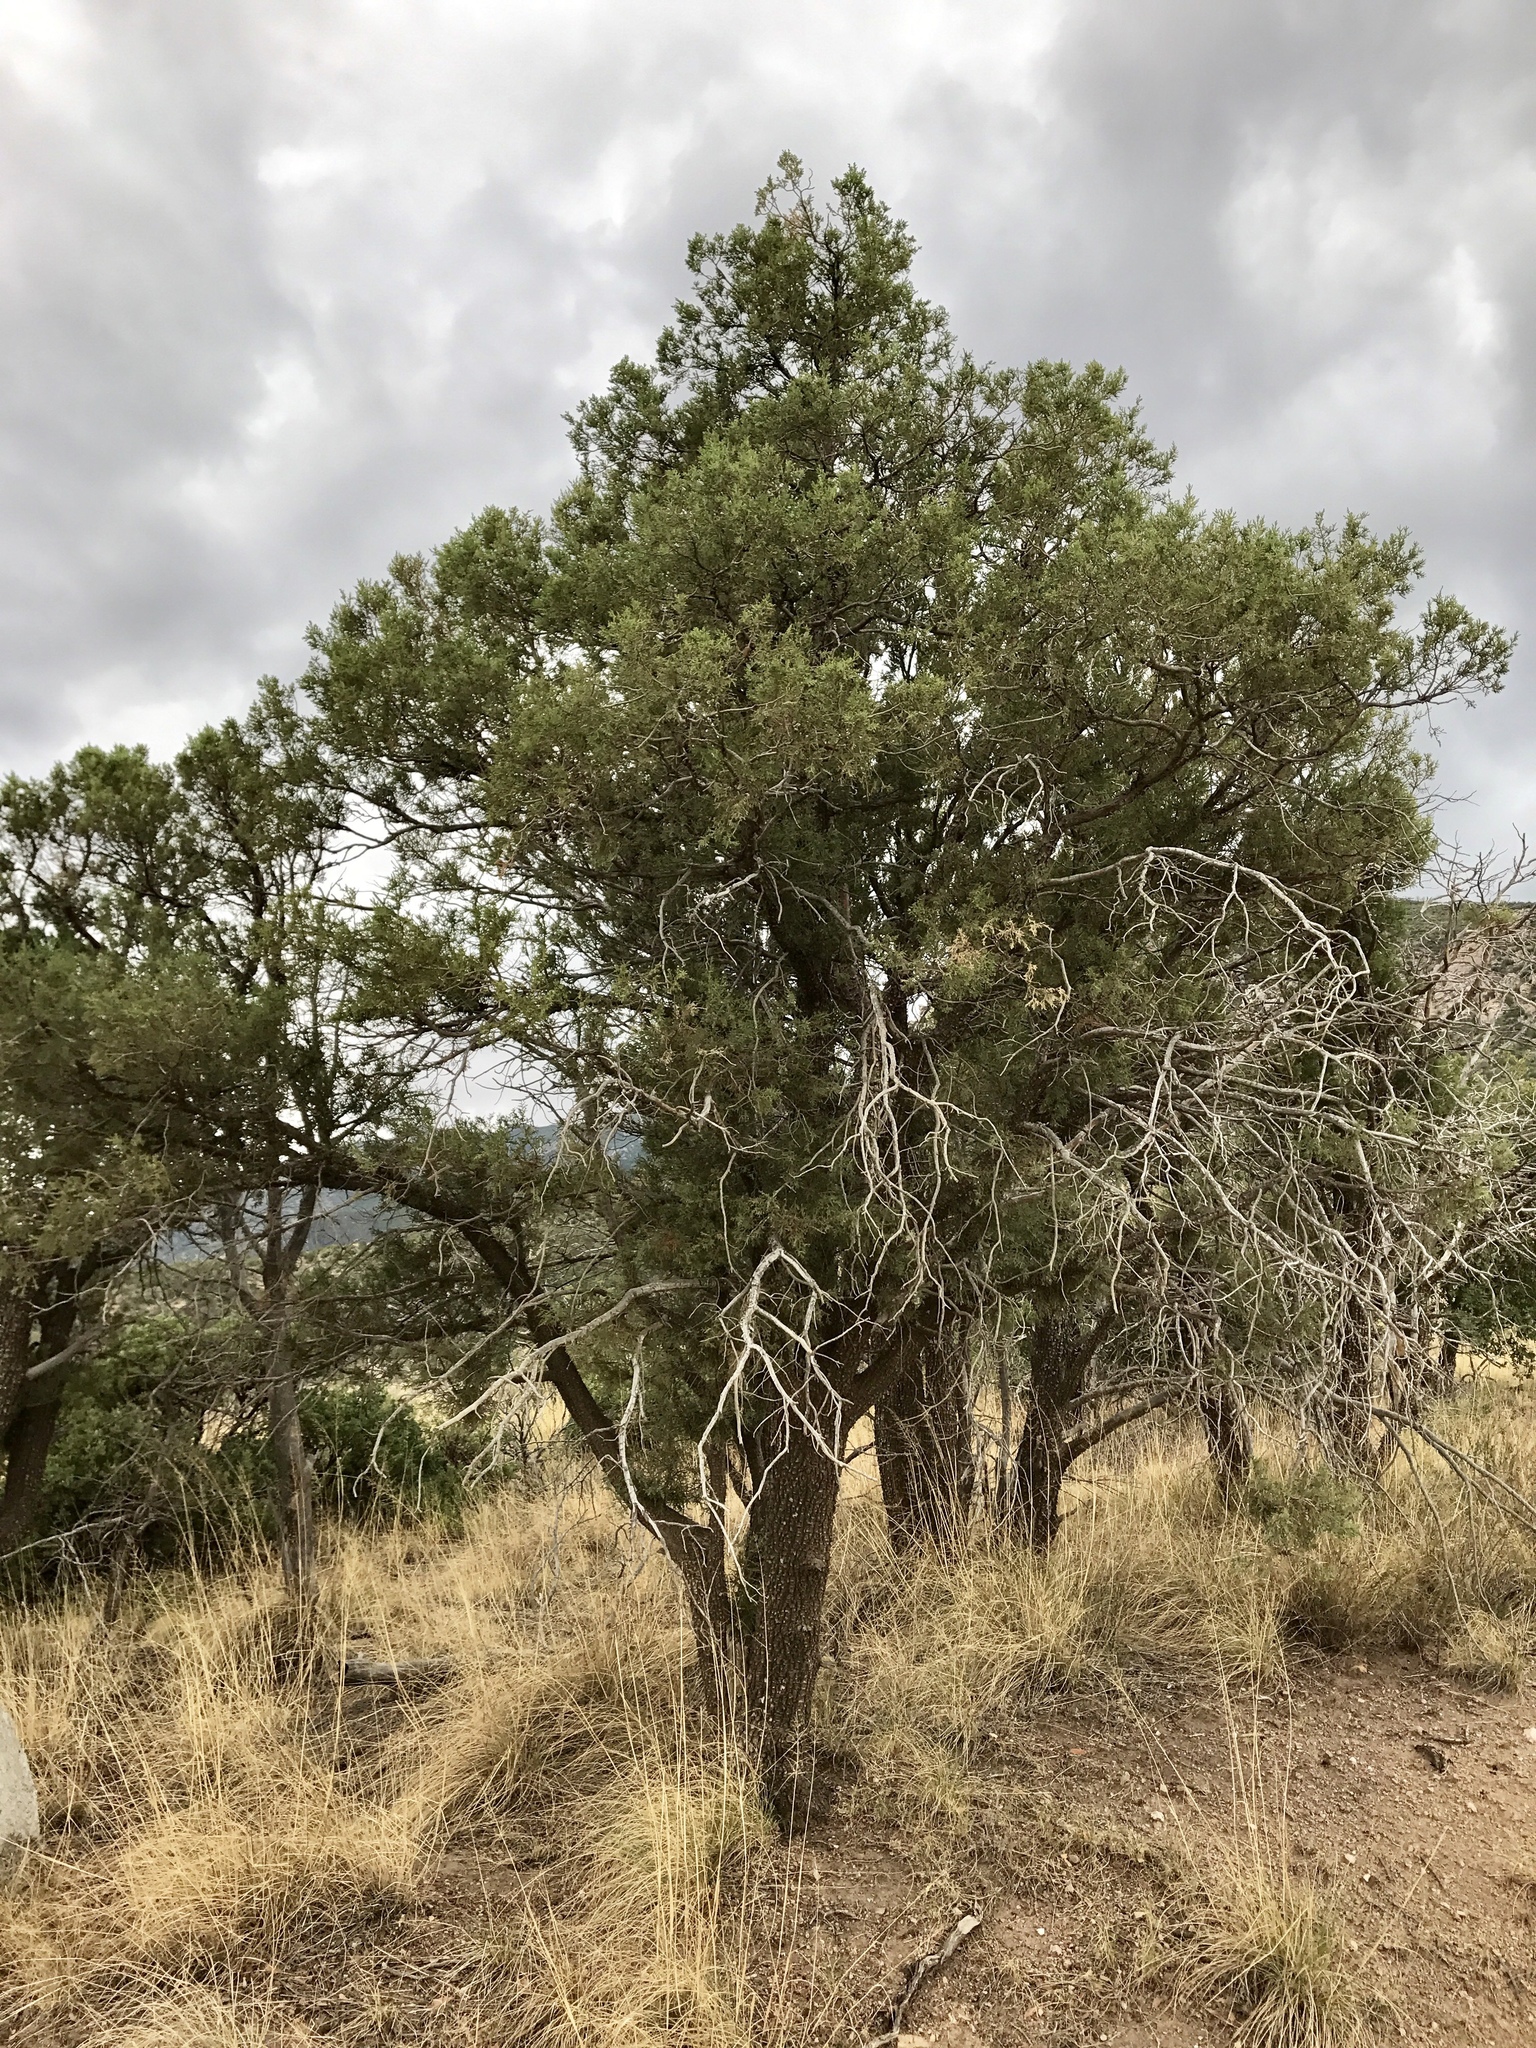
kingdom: Plantae
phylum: Tracheophyta
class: Pinopsida
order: Pinales
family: Cupressaceae
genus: Juniperus
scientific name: Juniperus deppeana
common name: Alligator juniper
